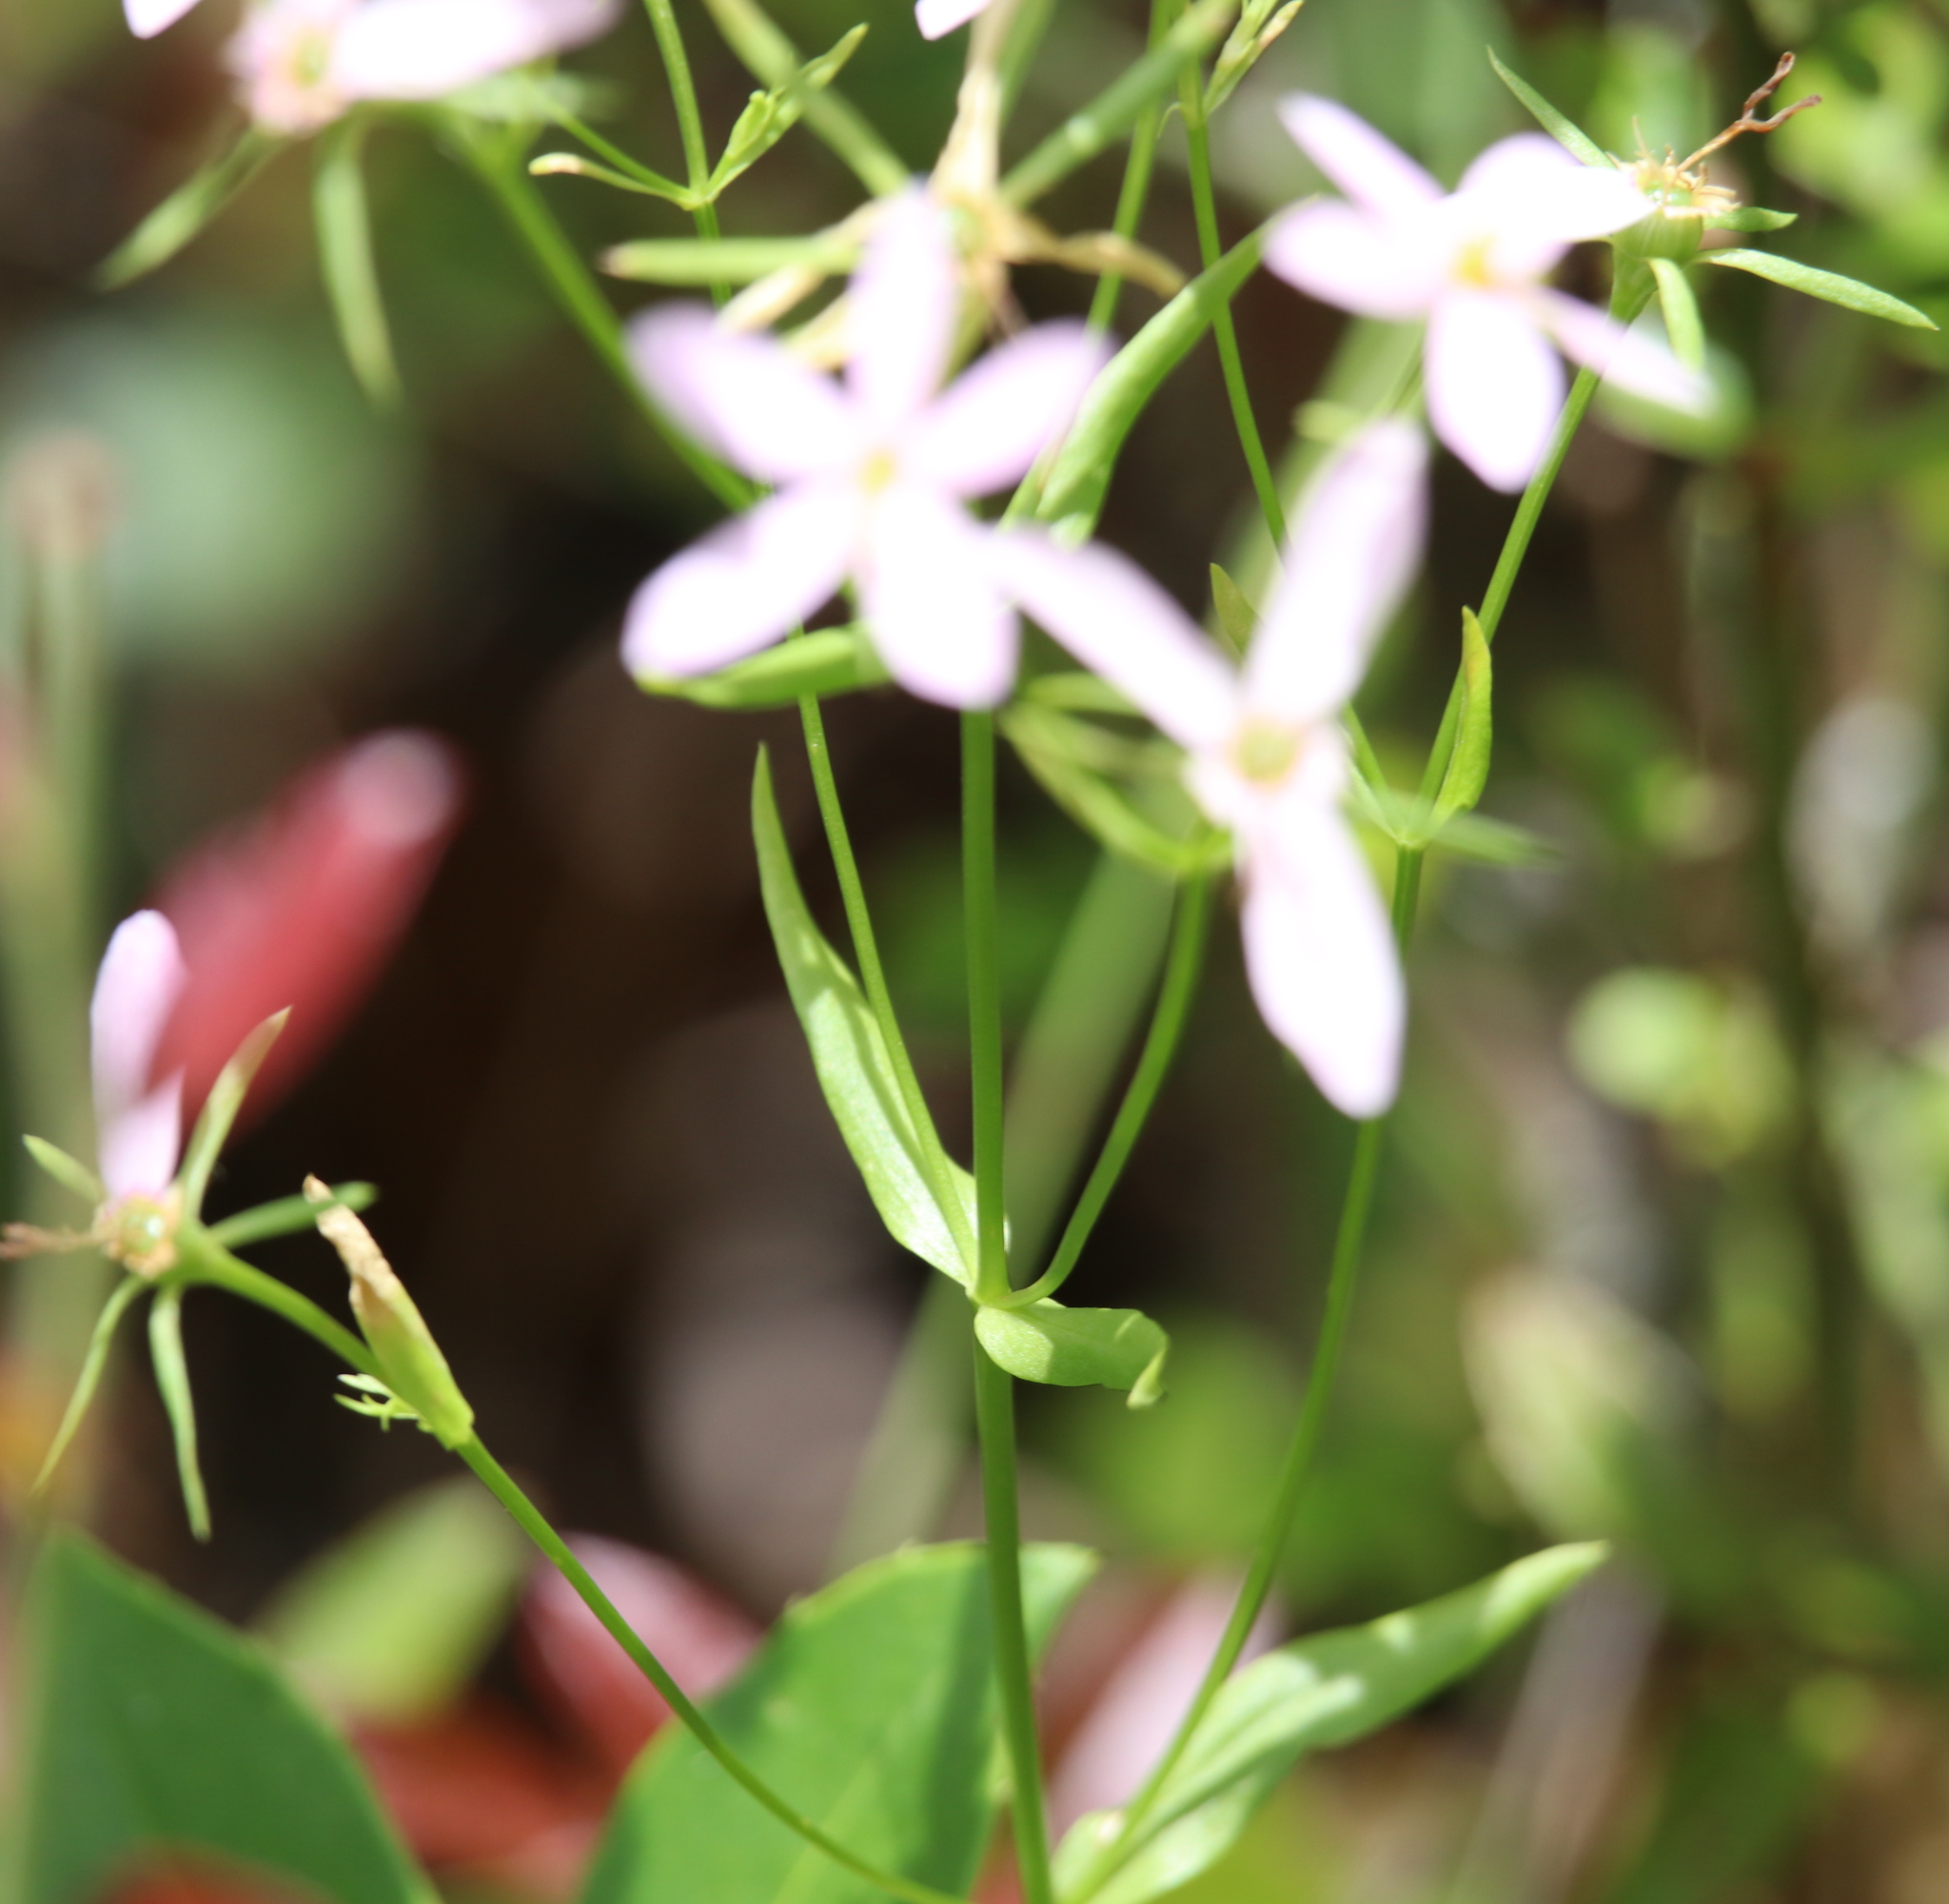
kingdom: Plantae
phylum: Tracheophyta
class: Magnoliopsida
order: Gentianales
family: Gentianaceae
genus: Sabatia
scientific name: Sabatia brachiata
